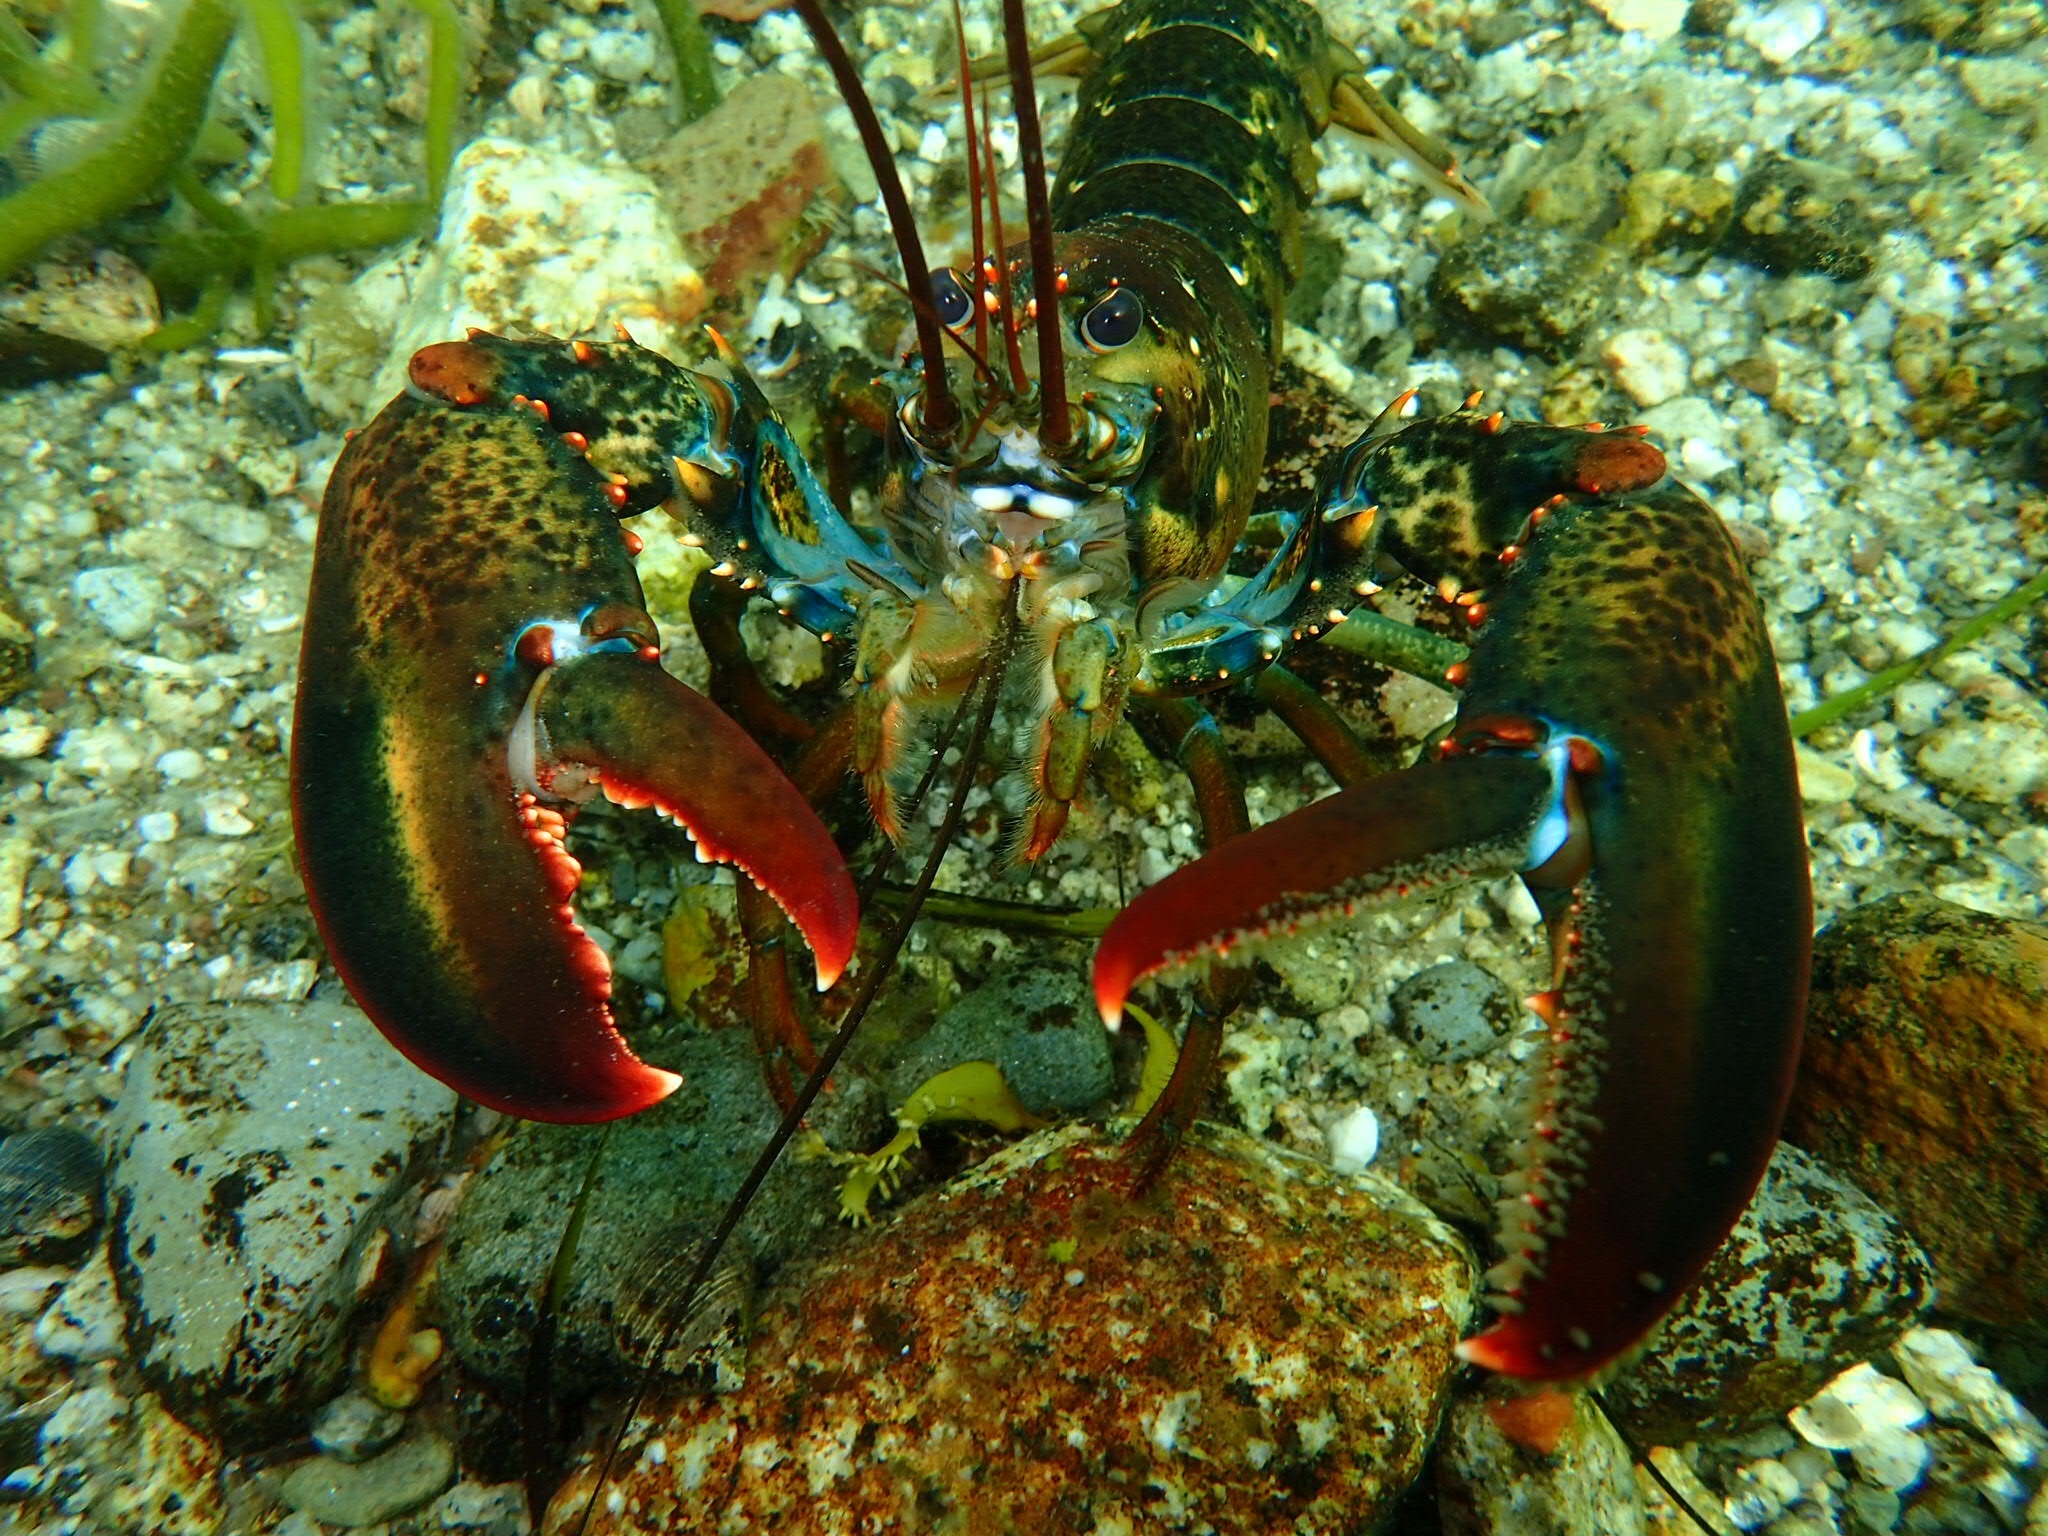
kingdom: Animalia
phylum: Arthropoda
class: Malacostraca
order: Decapoda
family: Nephropidae
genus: Homarus
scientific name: Homarus americanus
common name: American lobster
